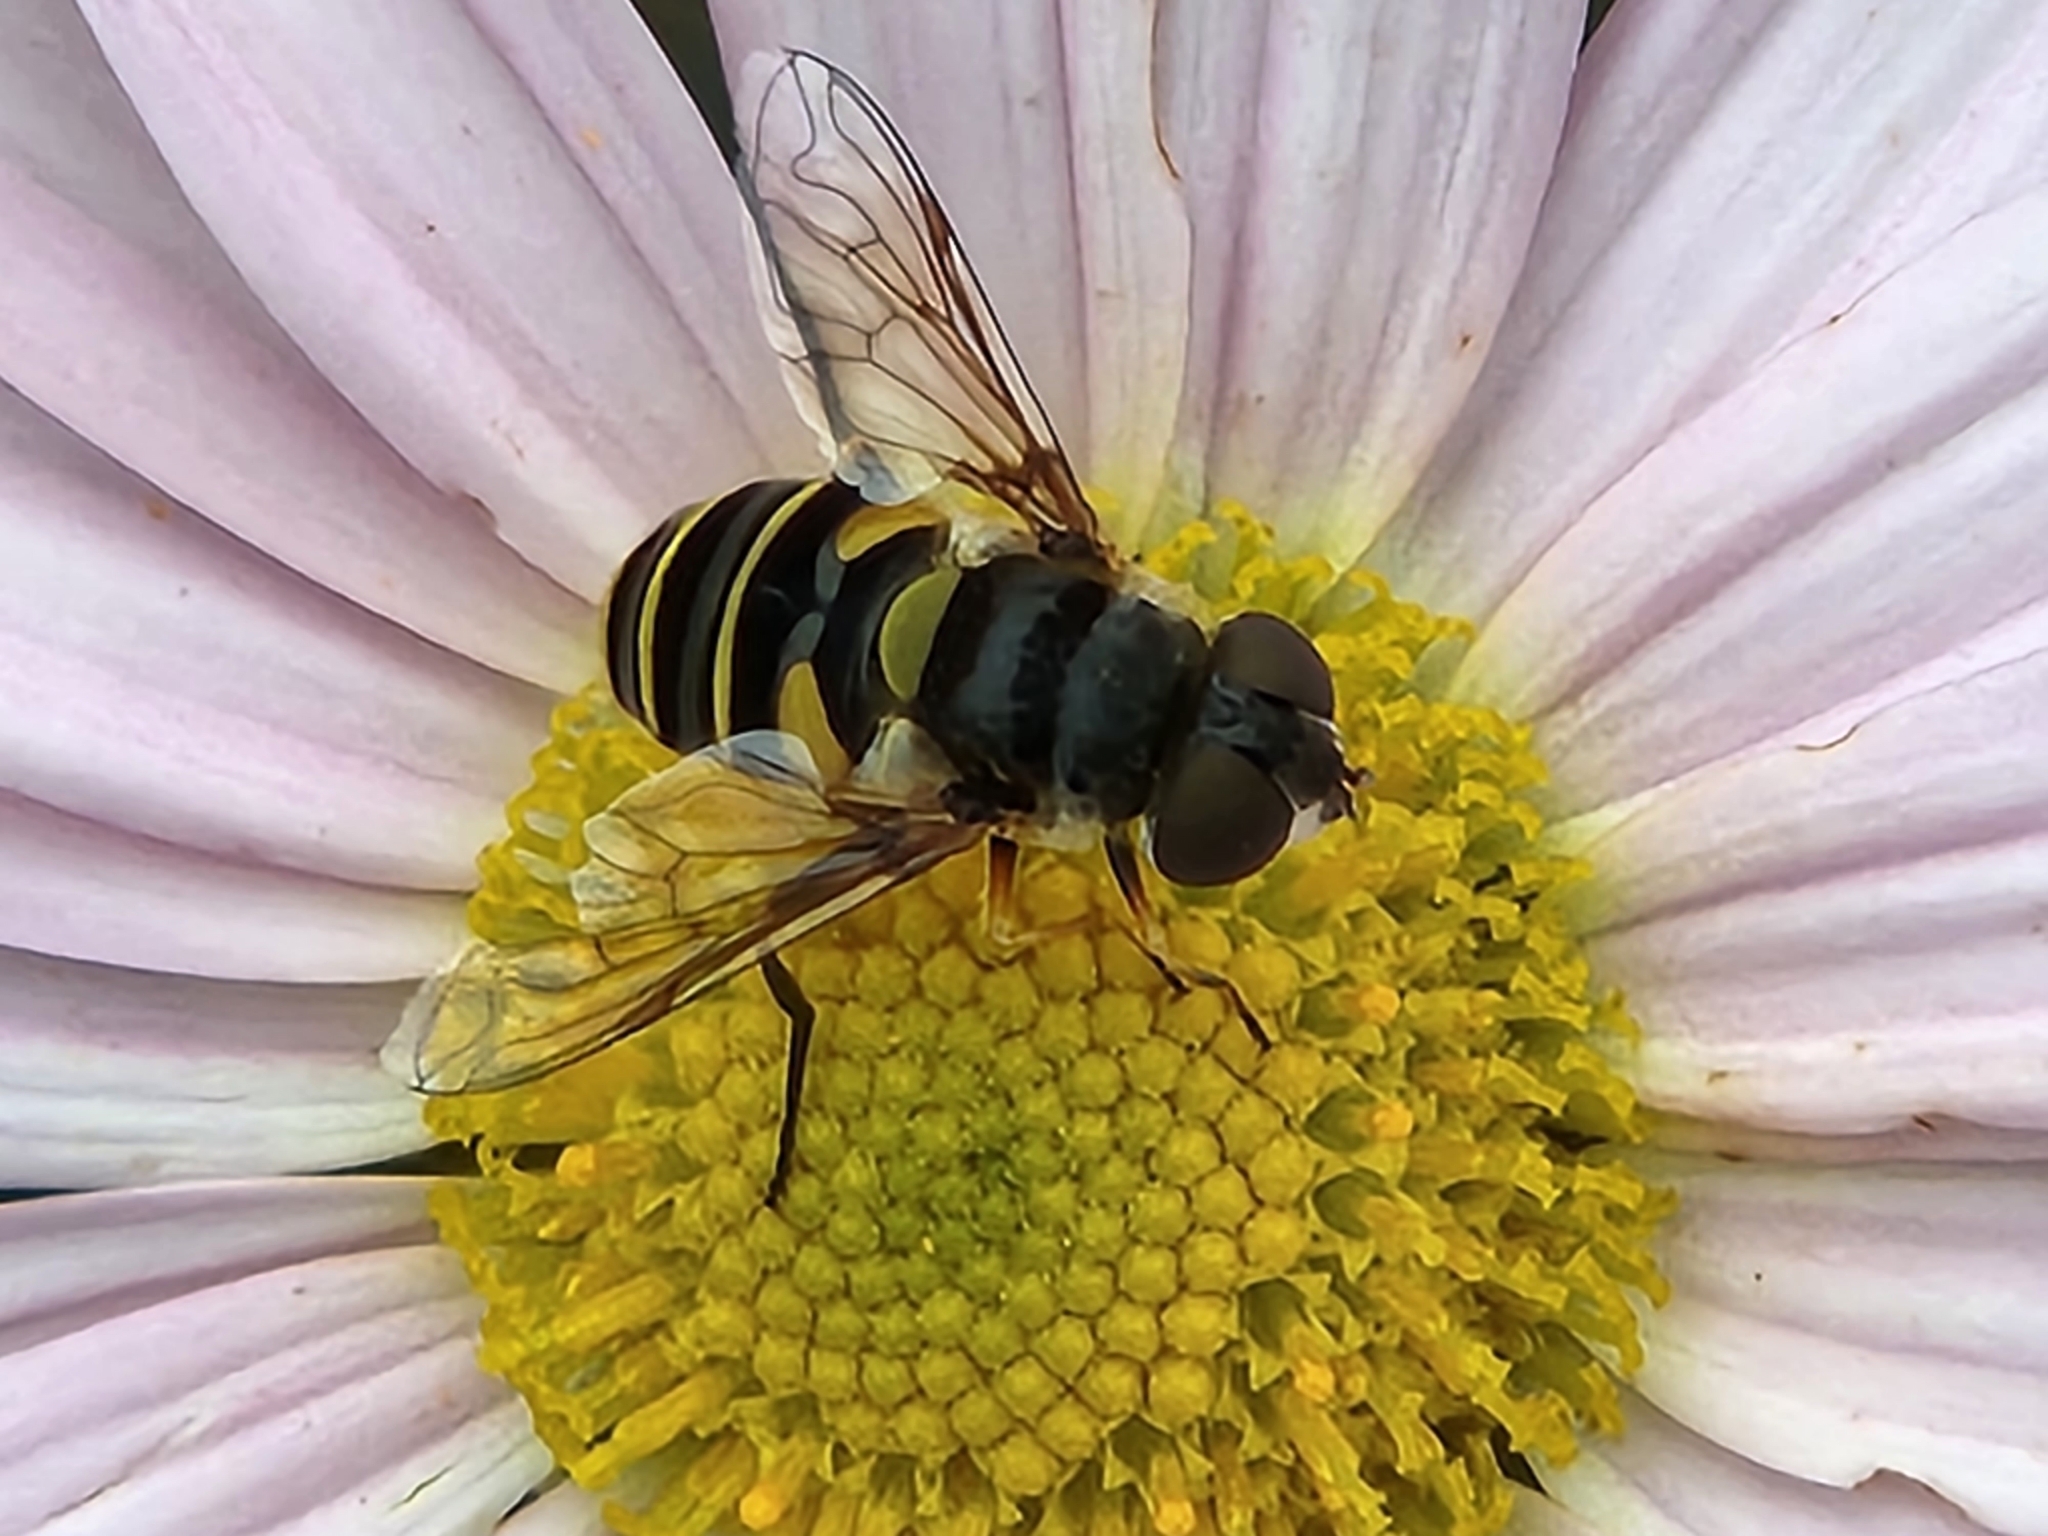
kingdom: Animalia
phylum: Arthropoda
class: Insecta
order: Diptera
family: Syrphidae
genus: Eristalis
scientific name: Eristalis transversa
